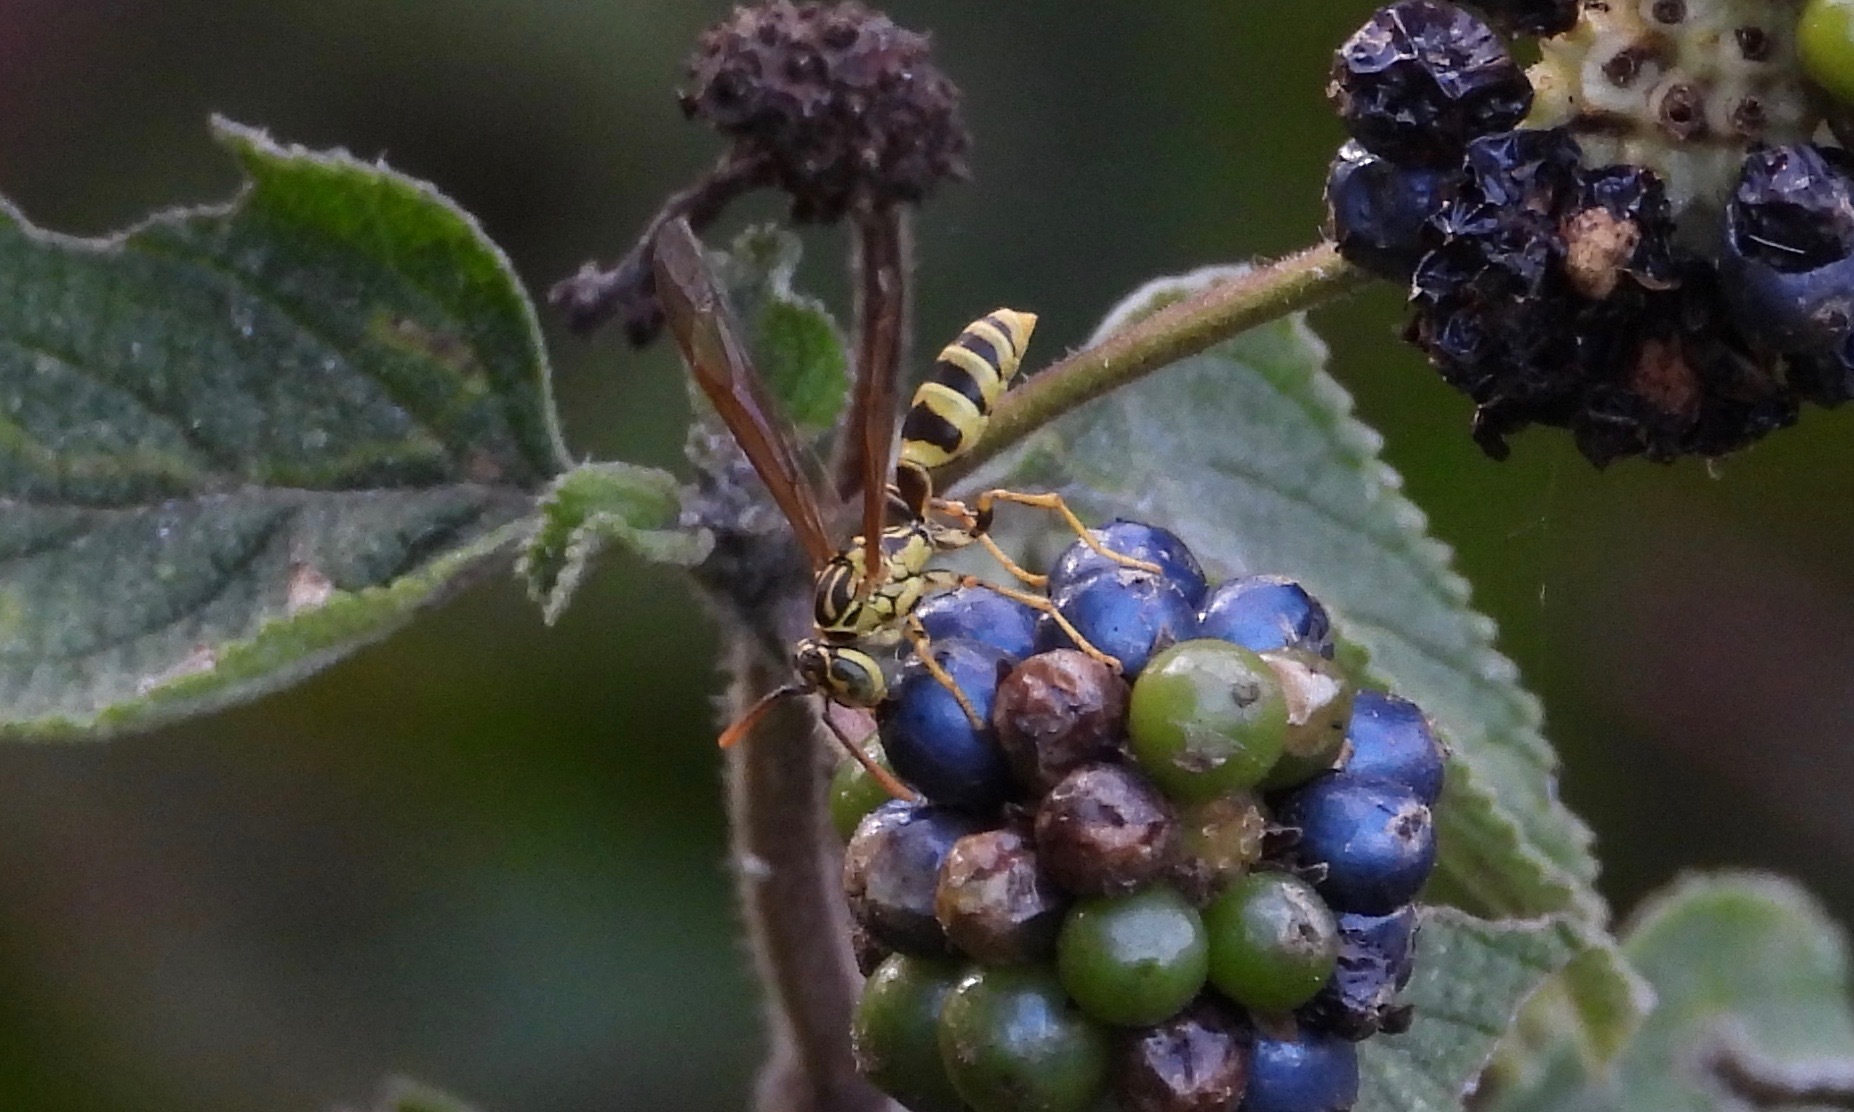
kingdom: Animalia
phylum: Arthropoda
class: Insecta
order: Hymenoptera
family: Vespidae
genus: Agelaia
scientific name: Agelaia areata
